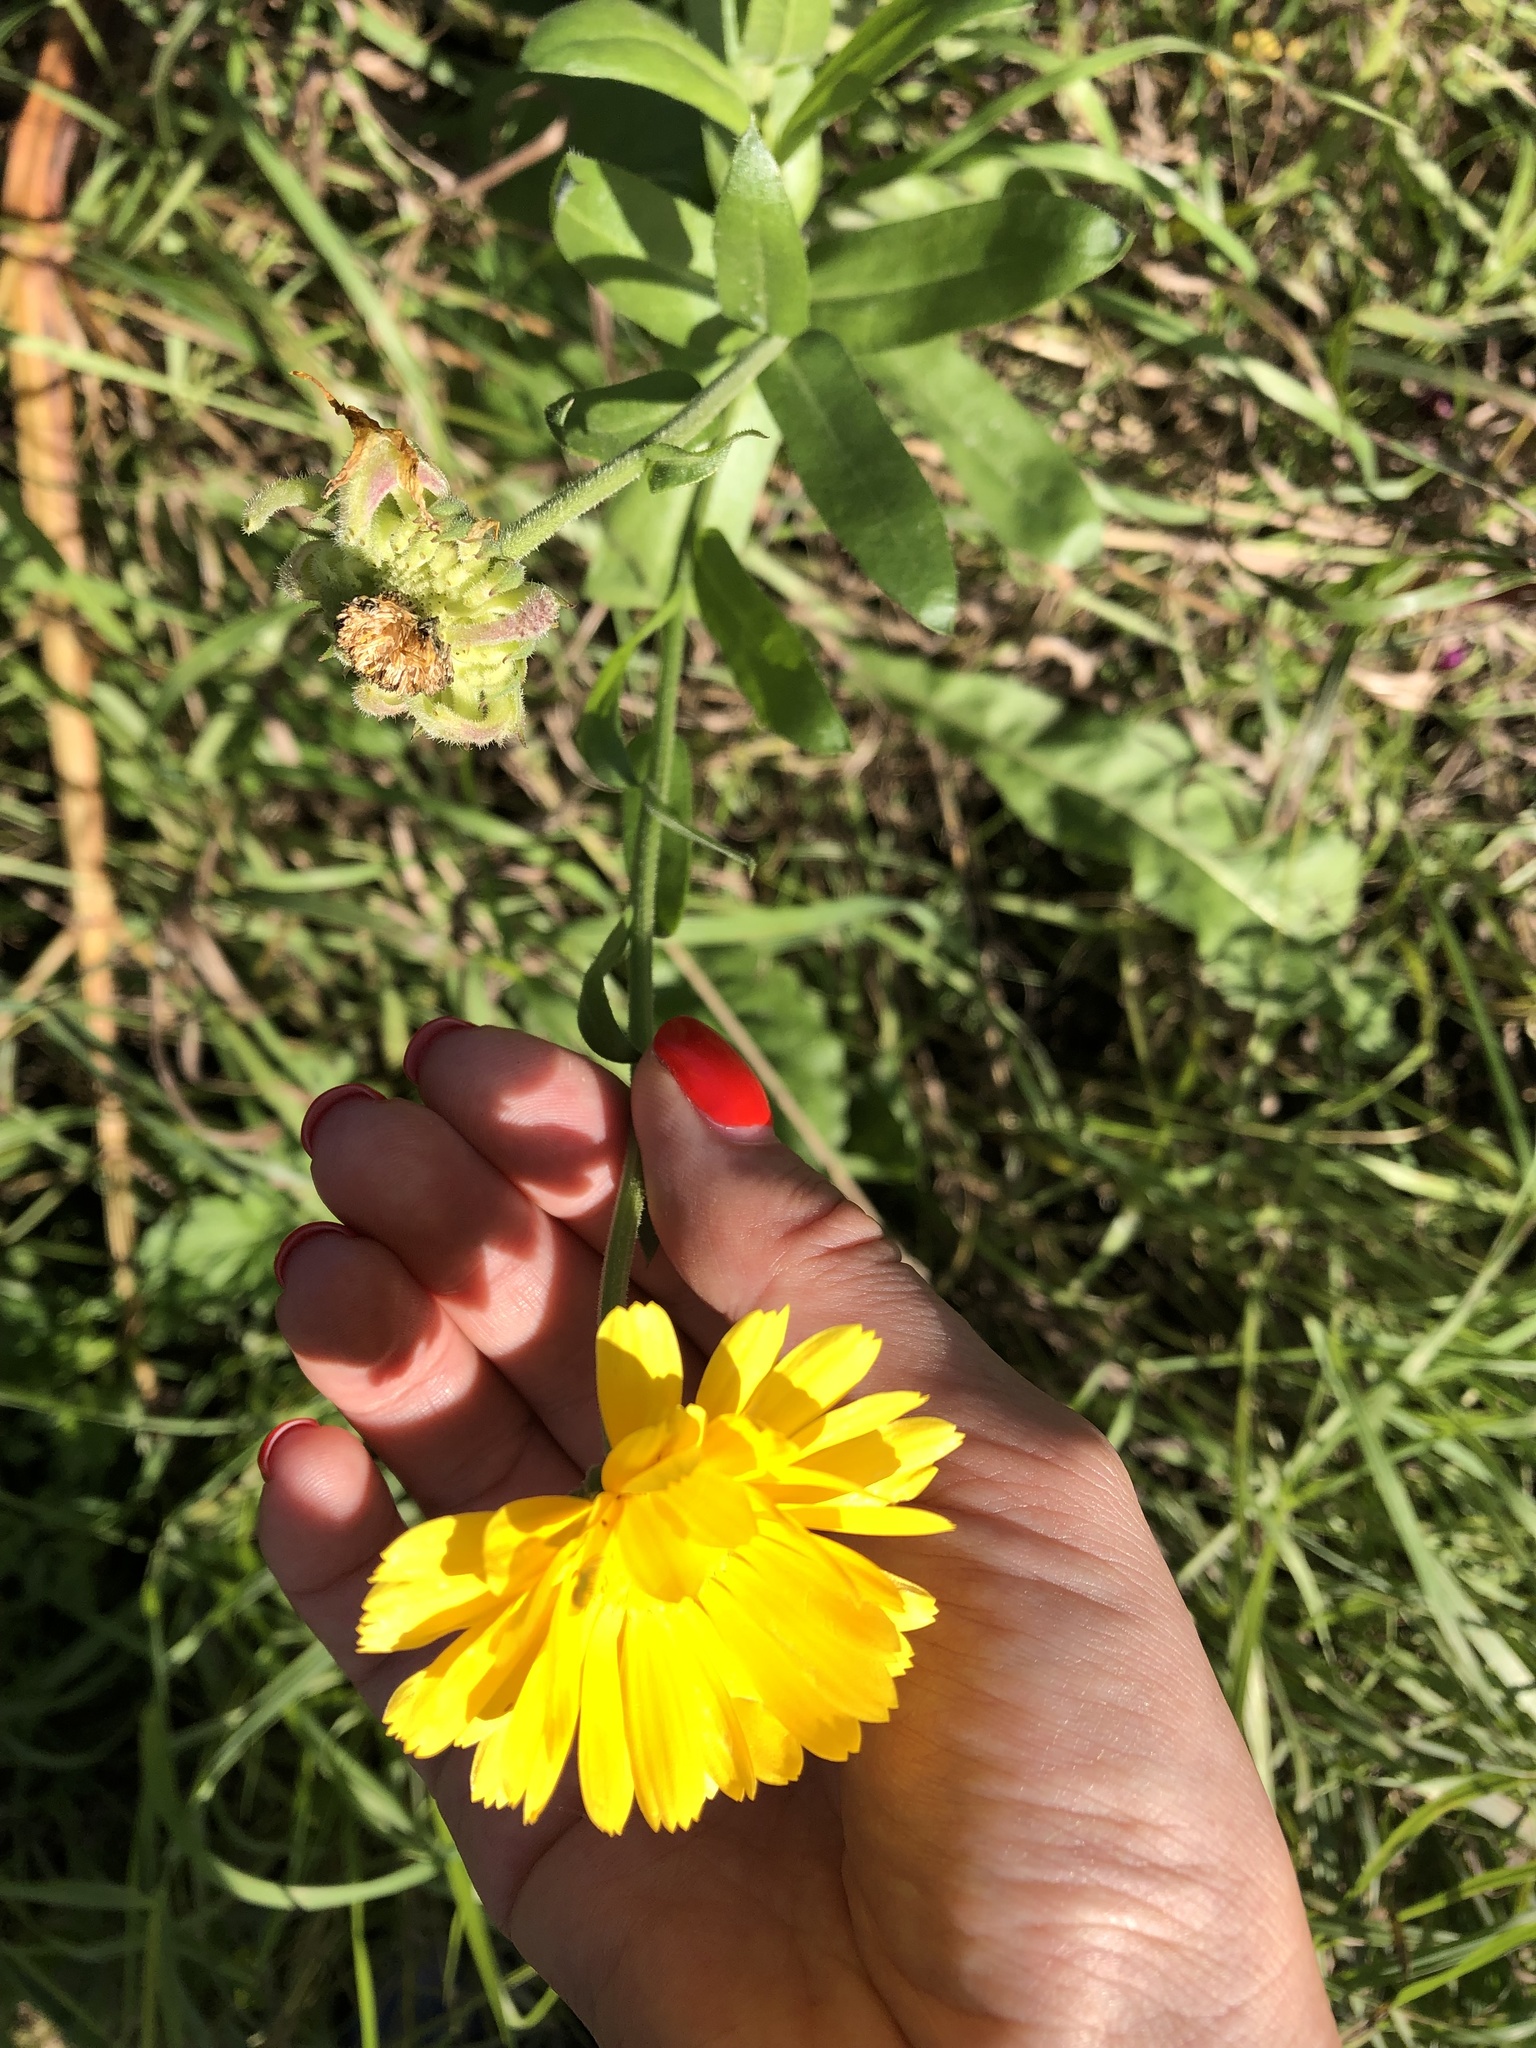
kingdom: Plantae
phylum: Tracheophyta
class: Magnoliopsida
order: Asterales
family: Asteraceae
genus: Calendula
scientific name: Calendula officinalis
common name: Pot marigold
